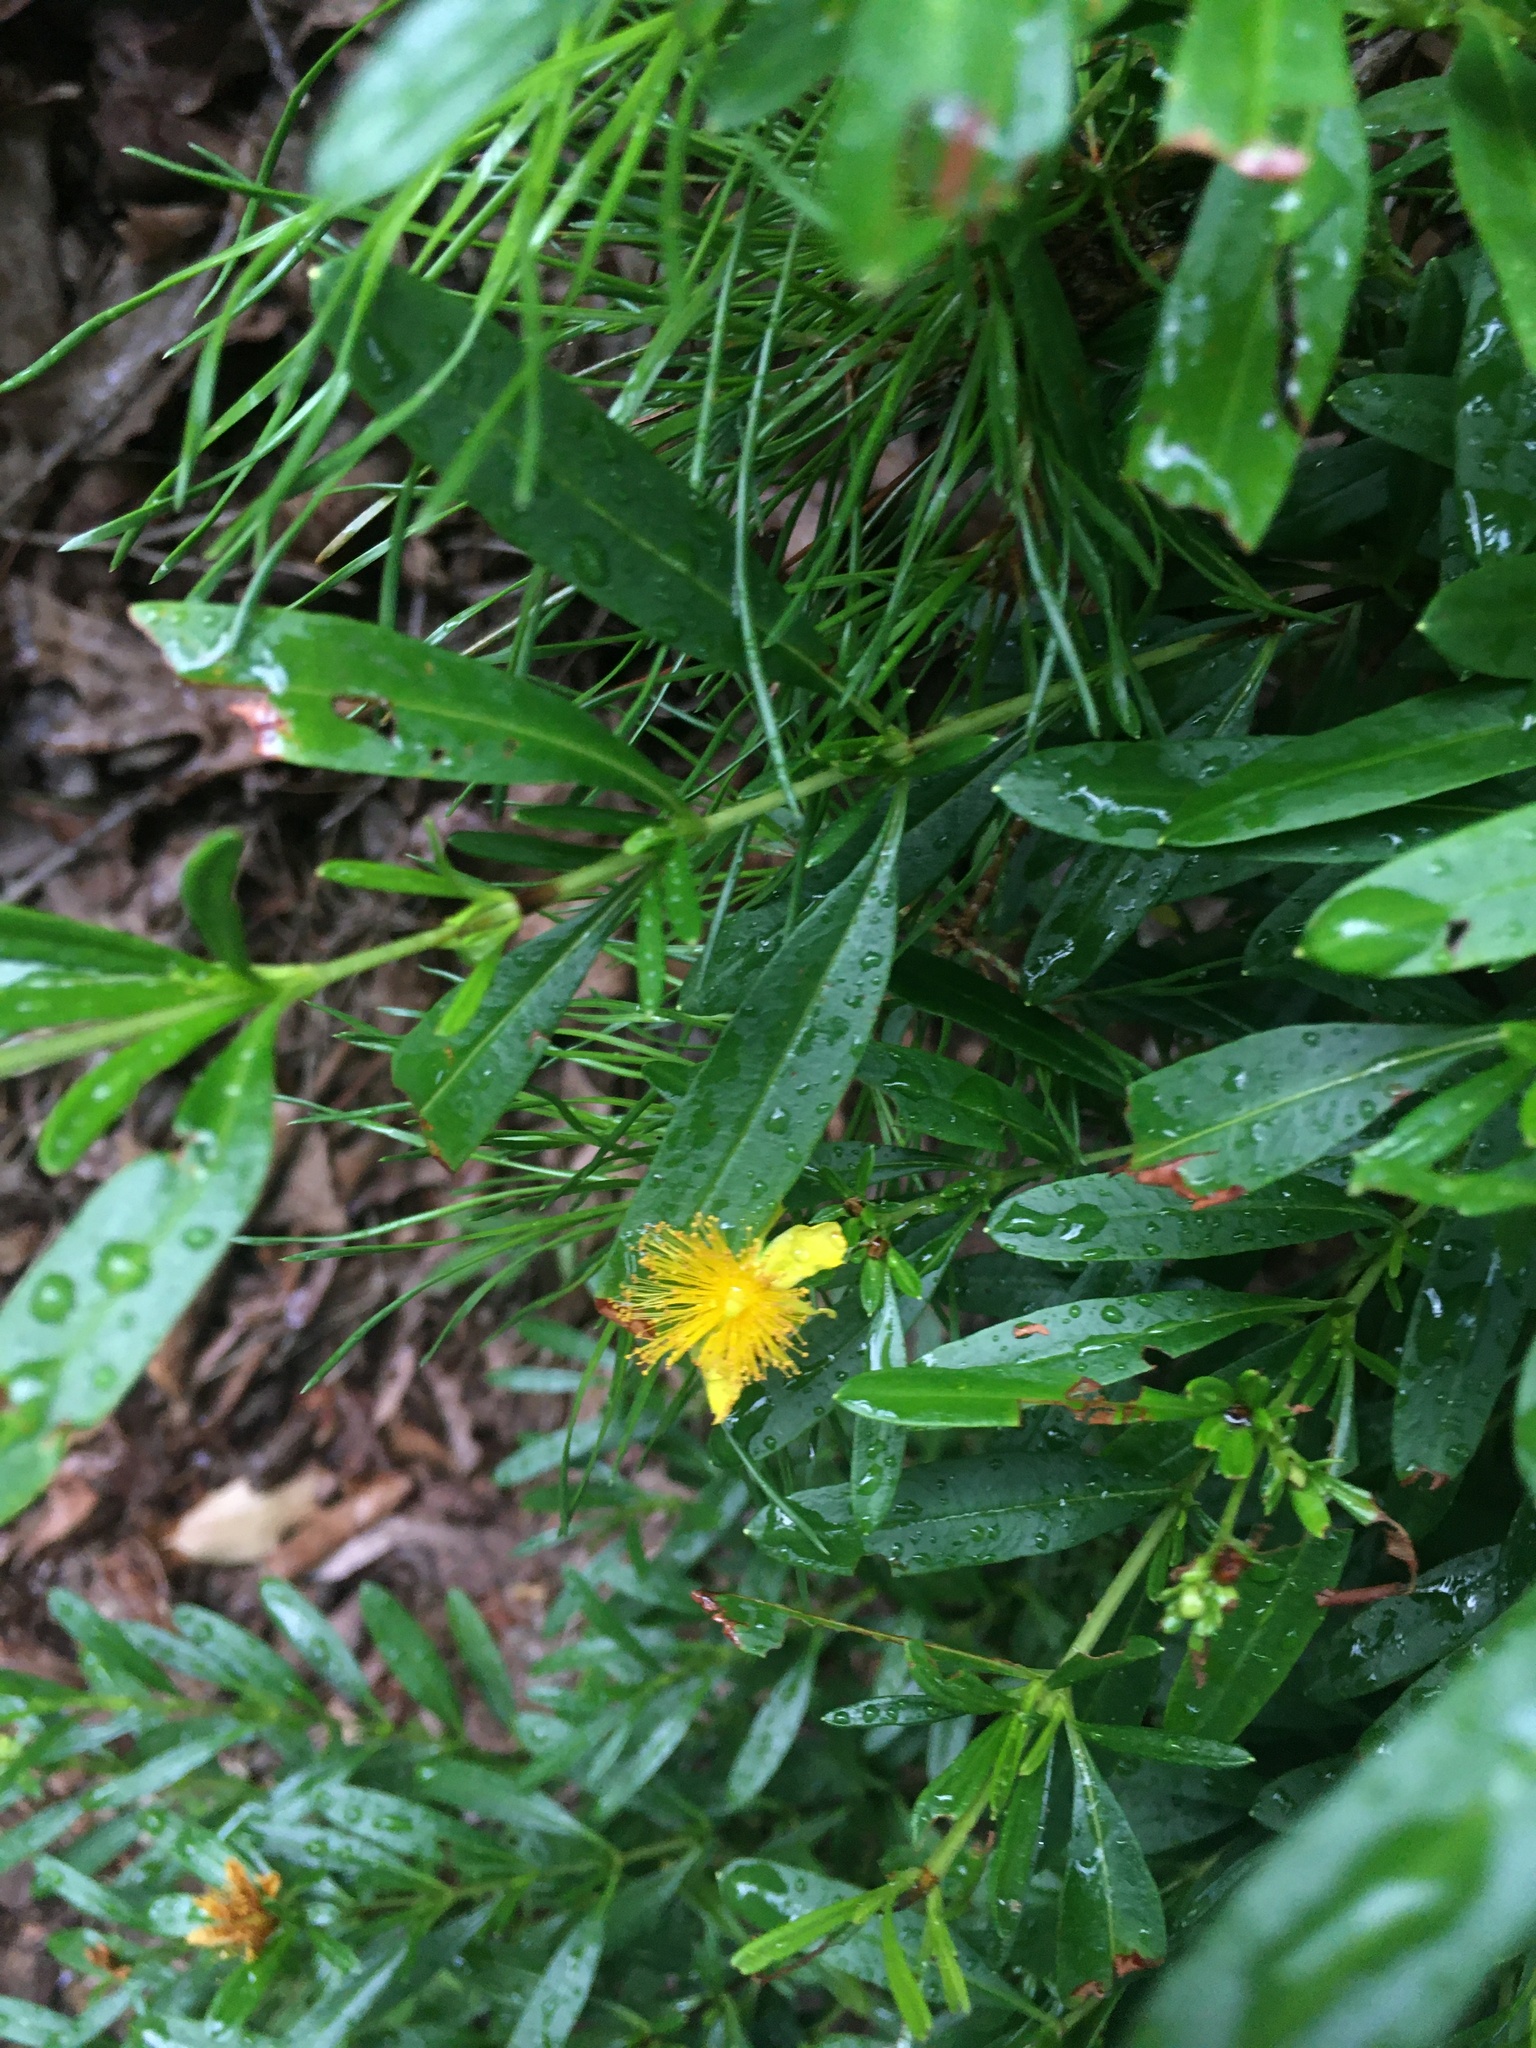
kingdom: Plantae
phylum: Tracheophyta
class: Magnoliopsida
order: Malpighiales
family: Hypericaceae
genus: Hypericum
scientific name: Hypericum prolificum
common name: Shrubby st. john's-wort
